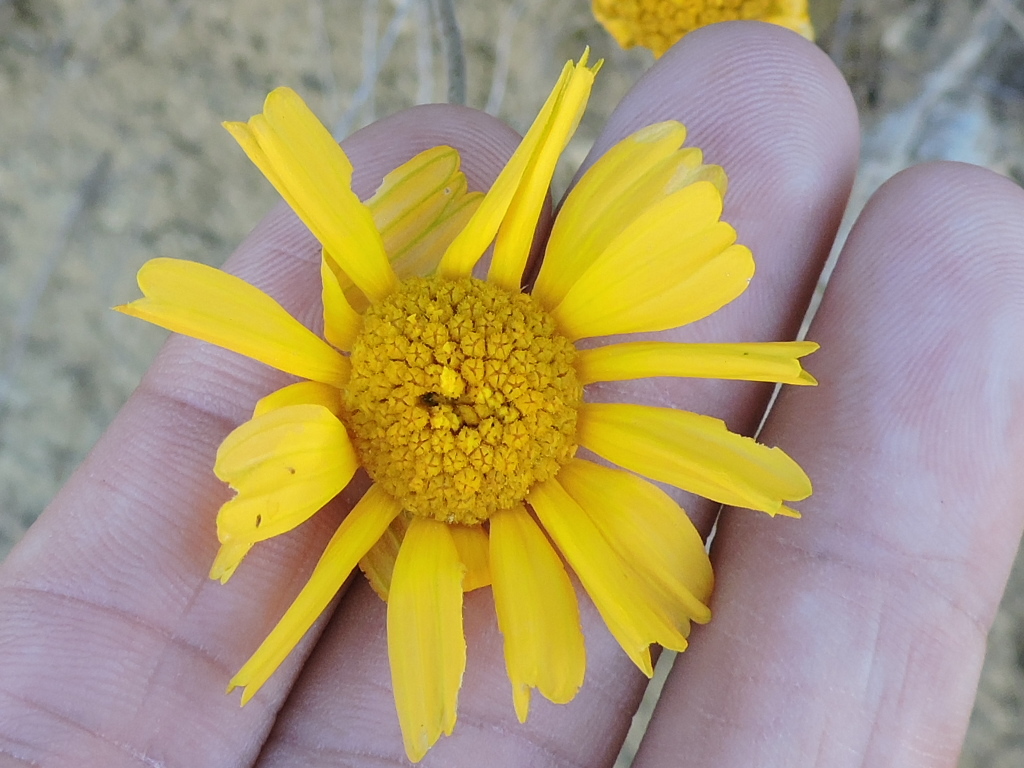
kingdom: Plantae
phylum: Tracheophyta
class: Magnoliopsida
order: Asterales
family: Asteraceae
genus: Tetraneuris
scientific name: Tetraneuris scaposa
